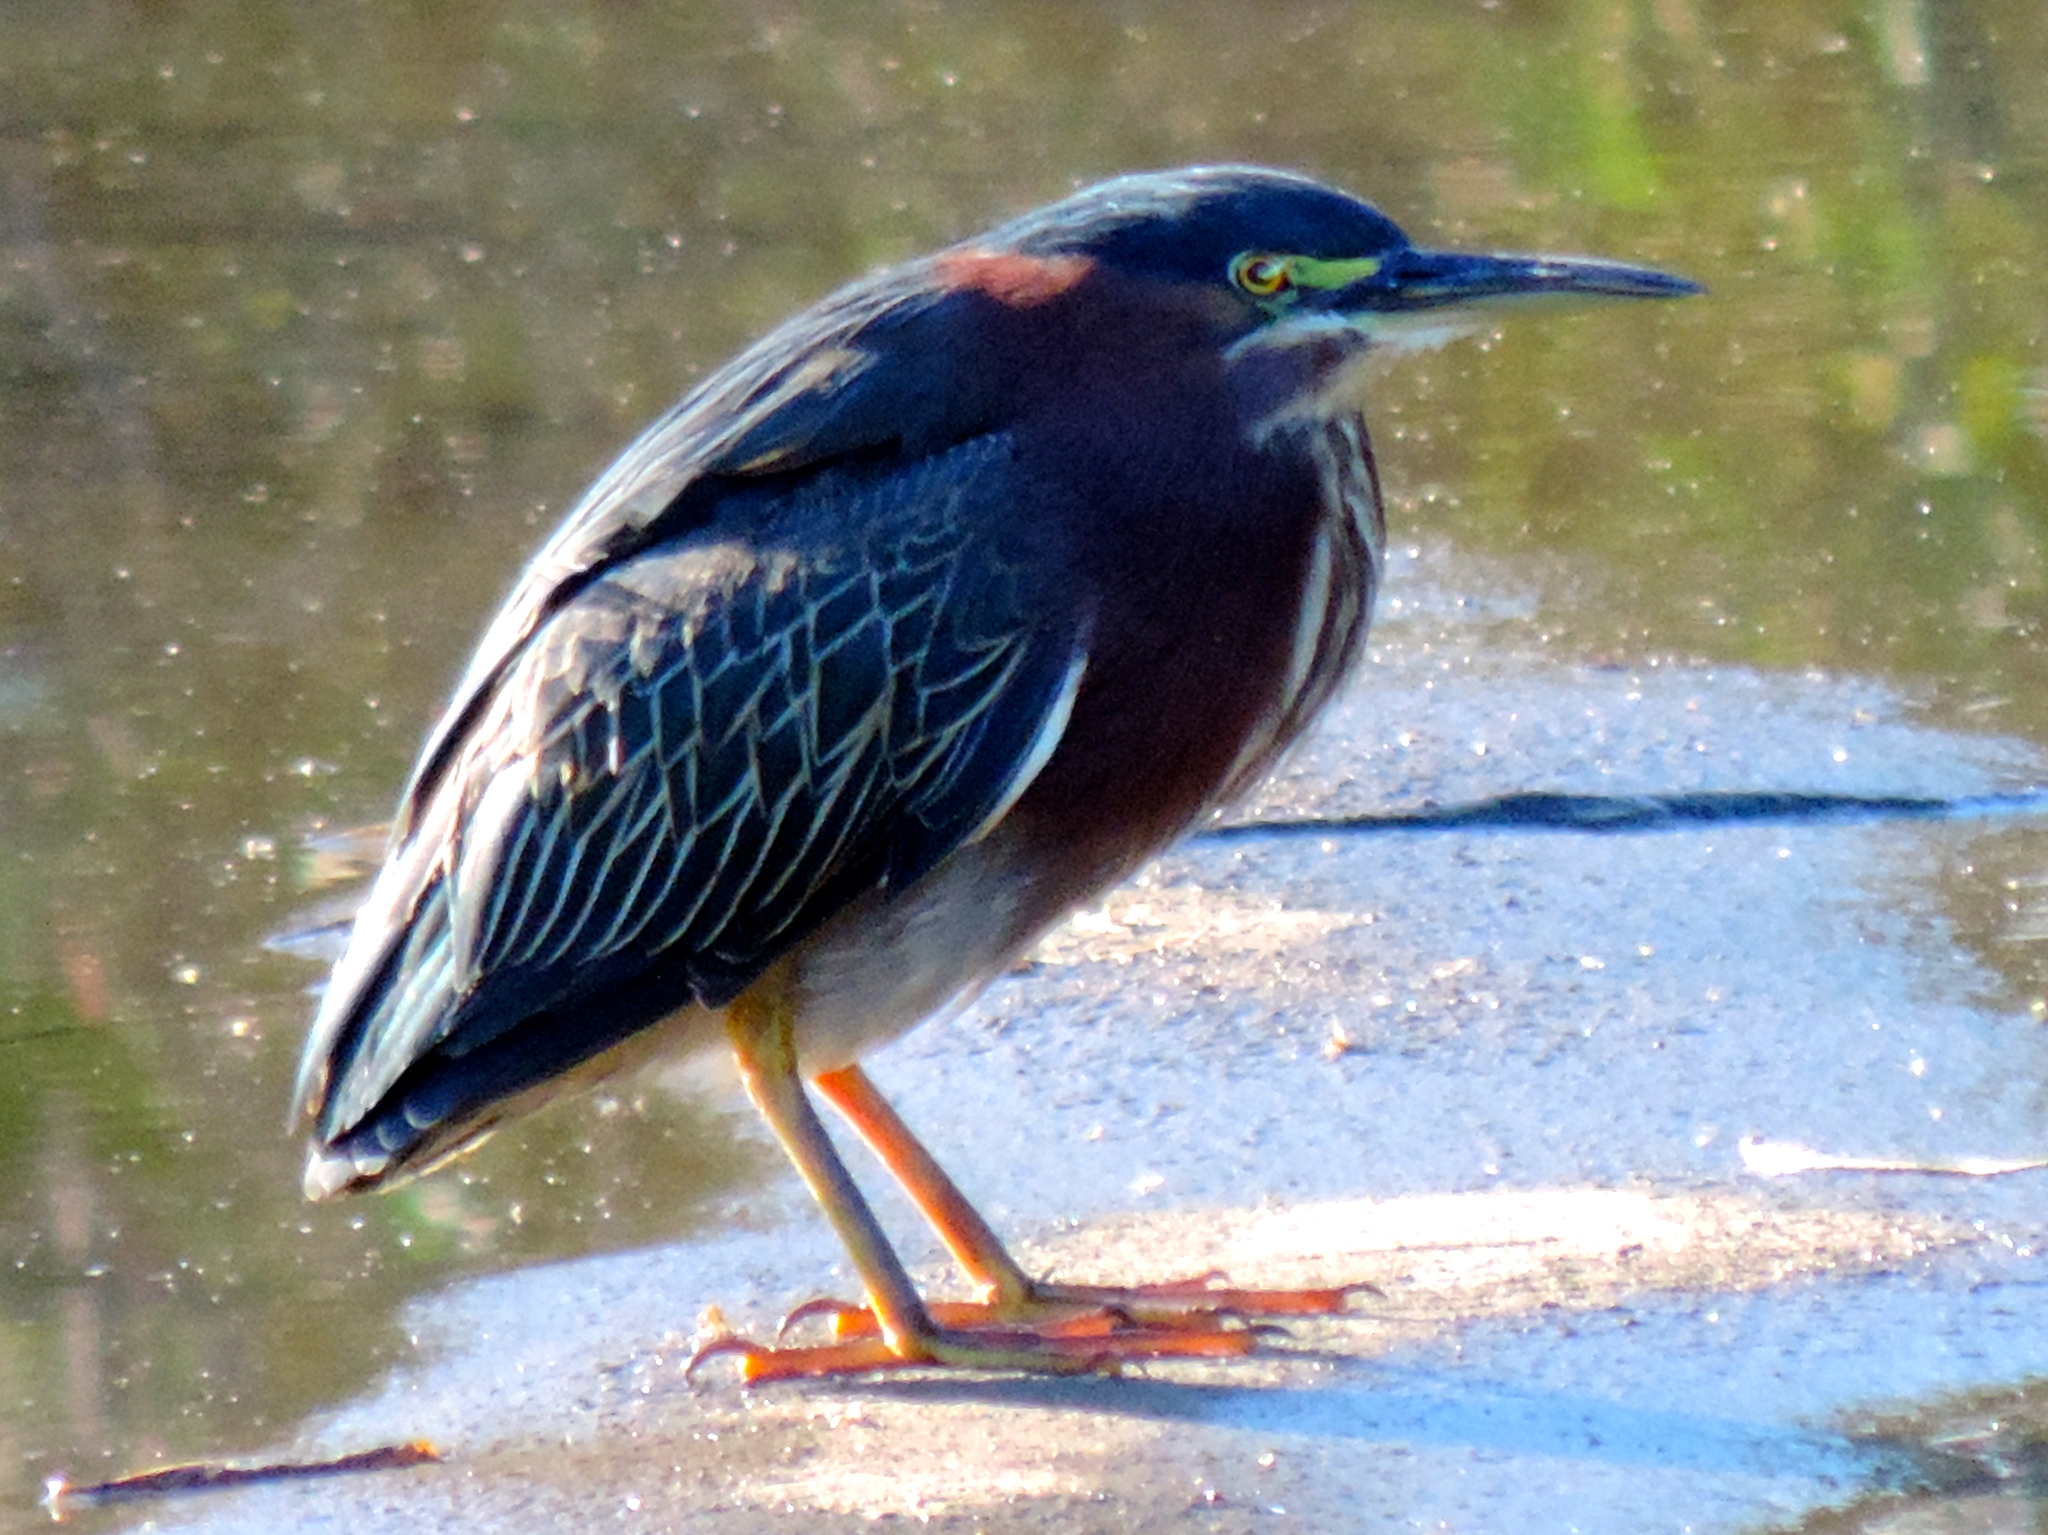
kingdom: Animalia
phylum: Chordata
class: Aves
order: Pelecaniformes
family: Ardeidae
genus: Butorides
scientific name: Butorides virescens
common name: Green heron
